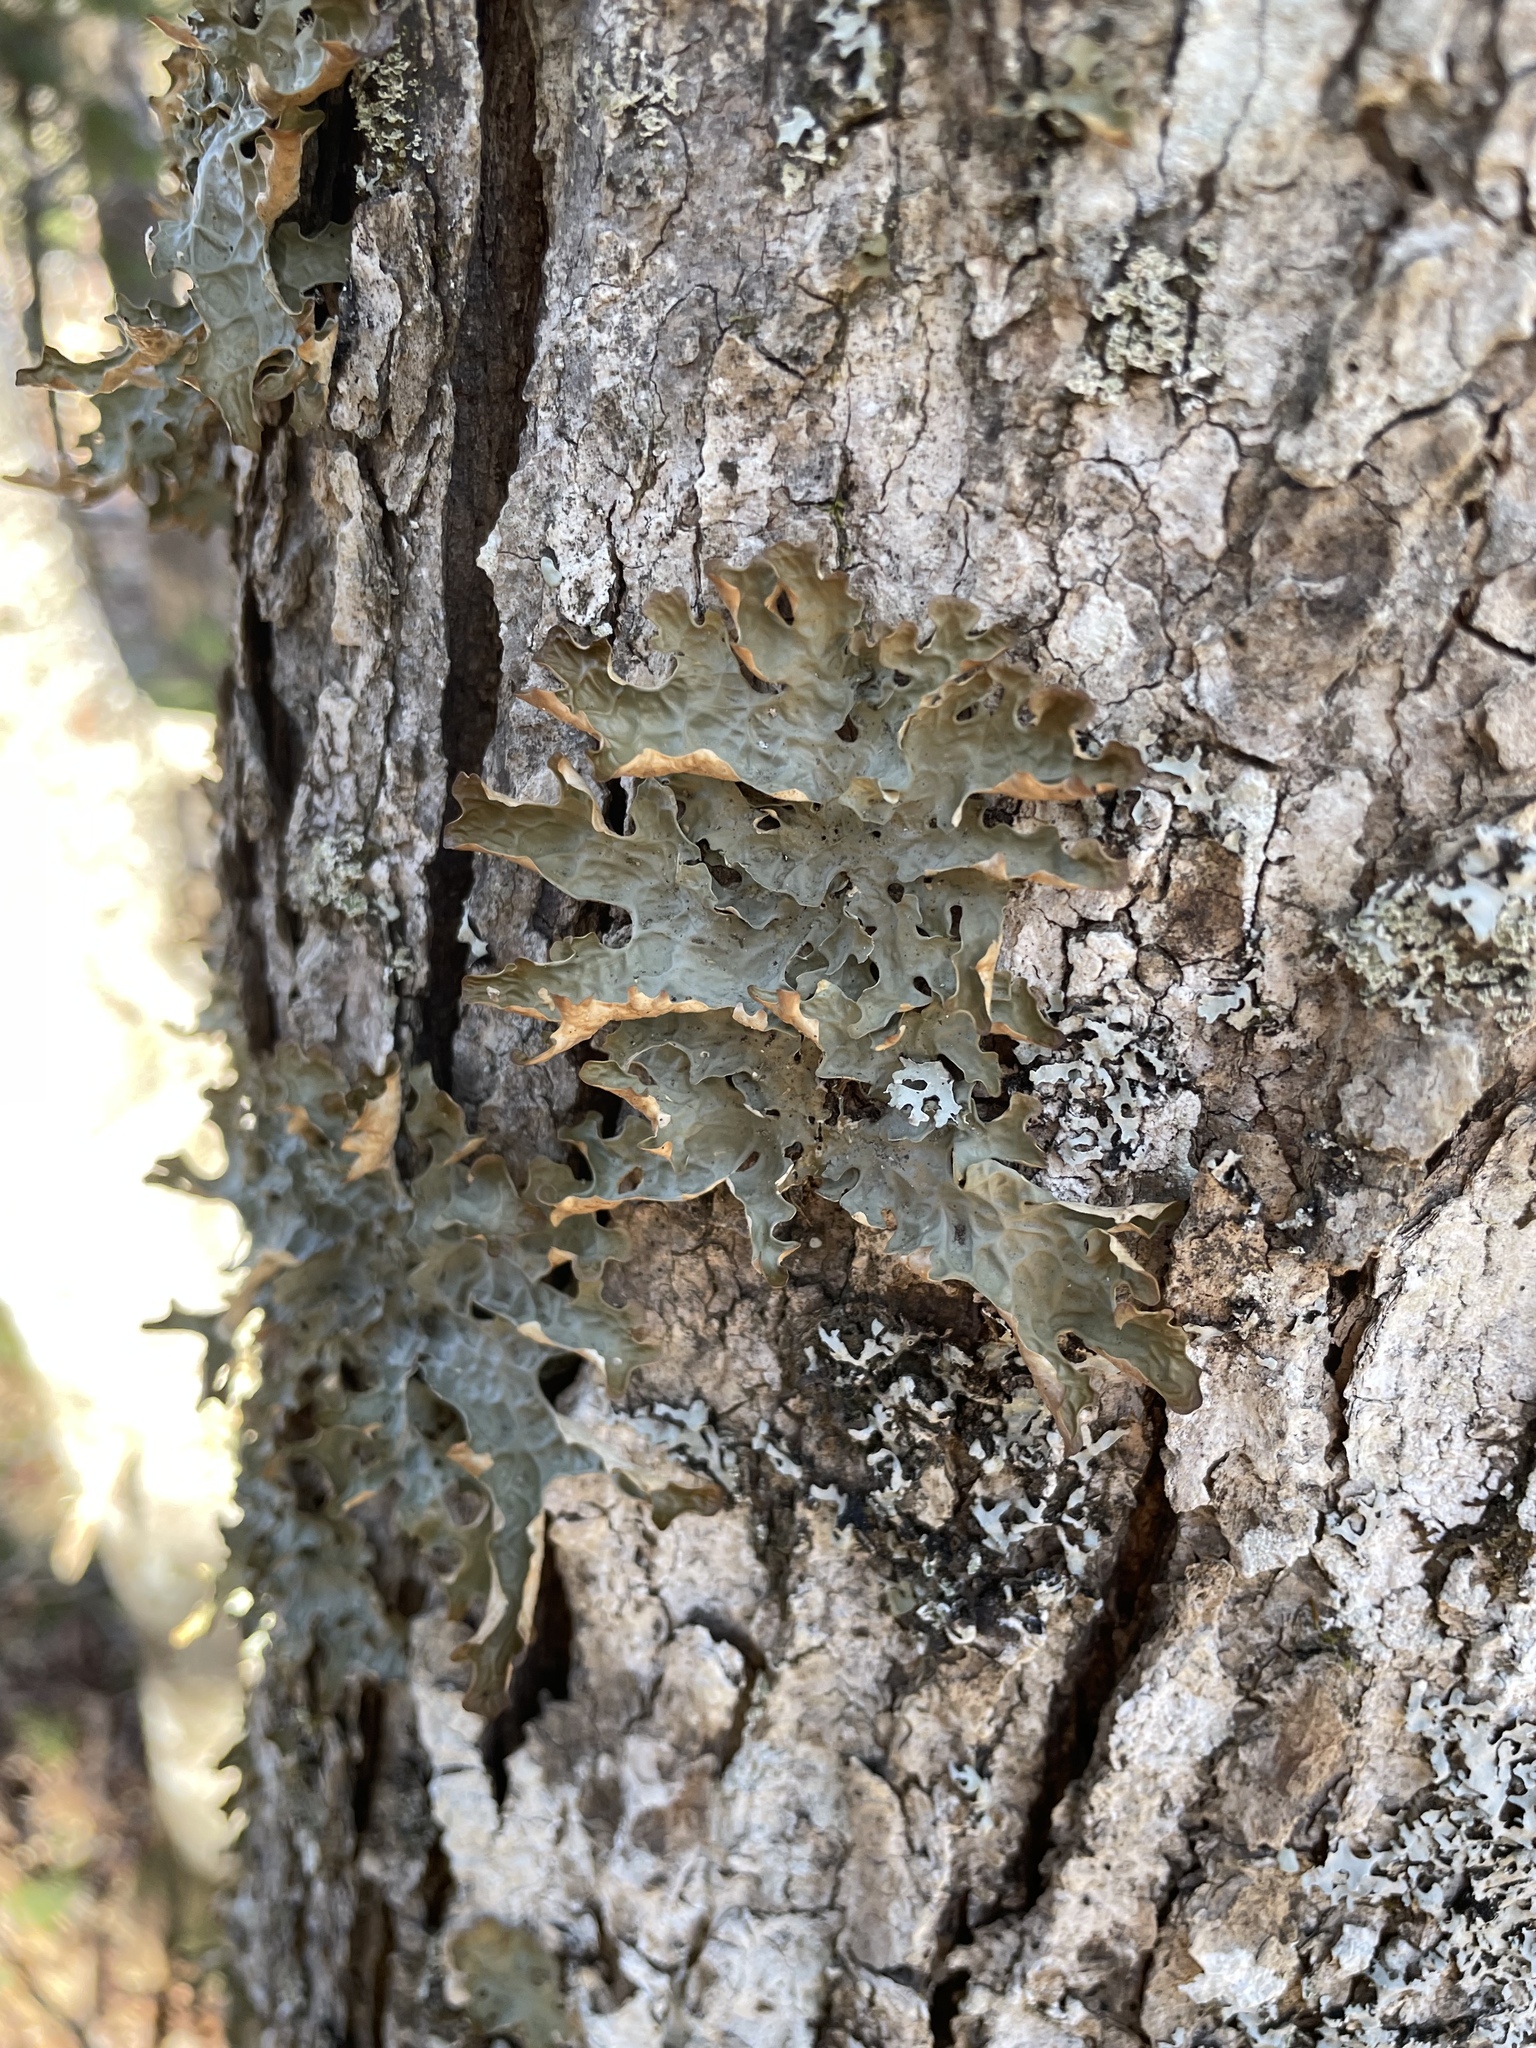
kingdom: Fungi
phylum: Ascomycota
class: Lecanoromycetes
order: Peltigerales
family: Lobariaceae
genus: Lobaria
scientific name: Lobaria pulmonaria
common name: Lungwort
